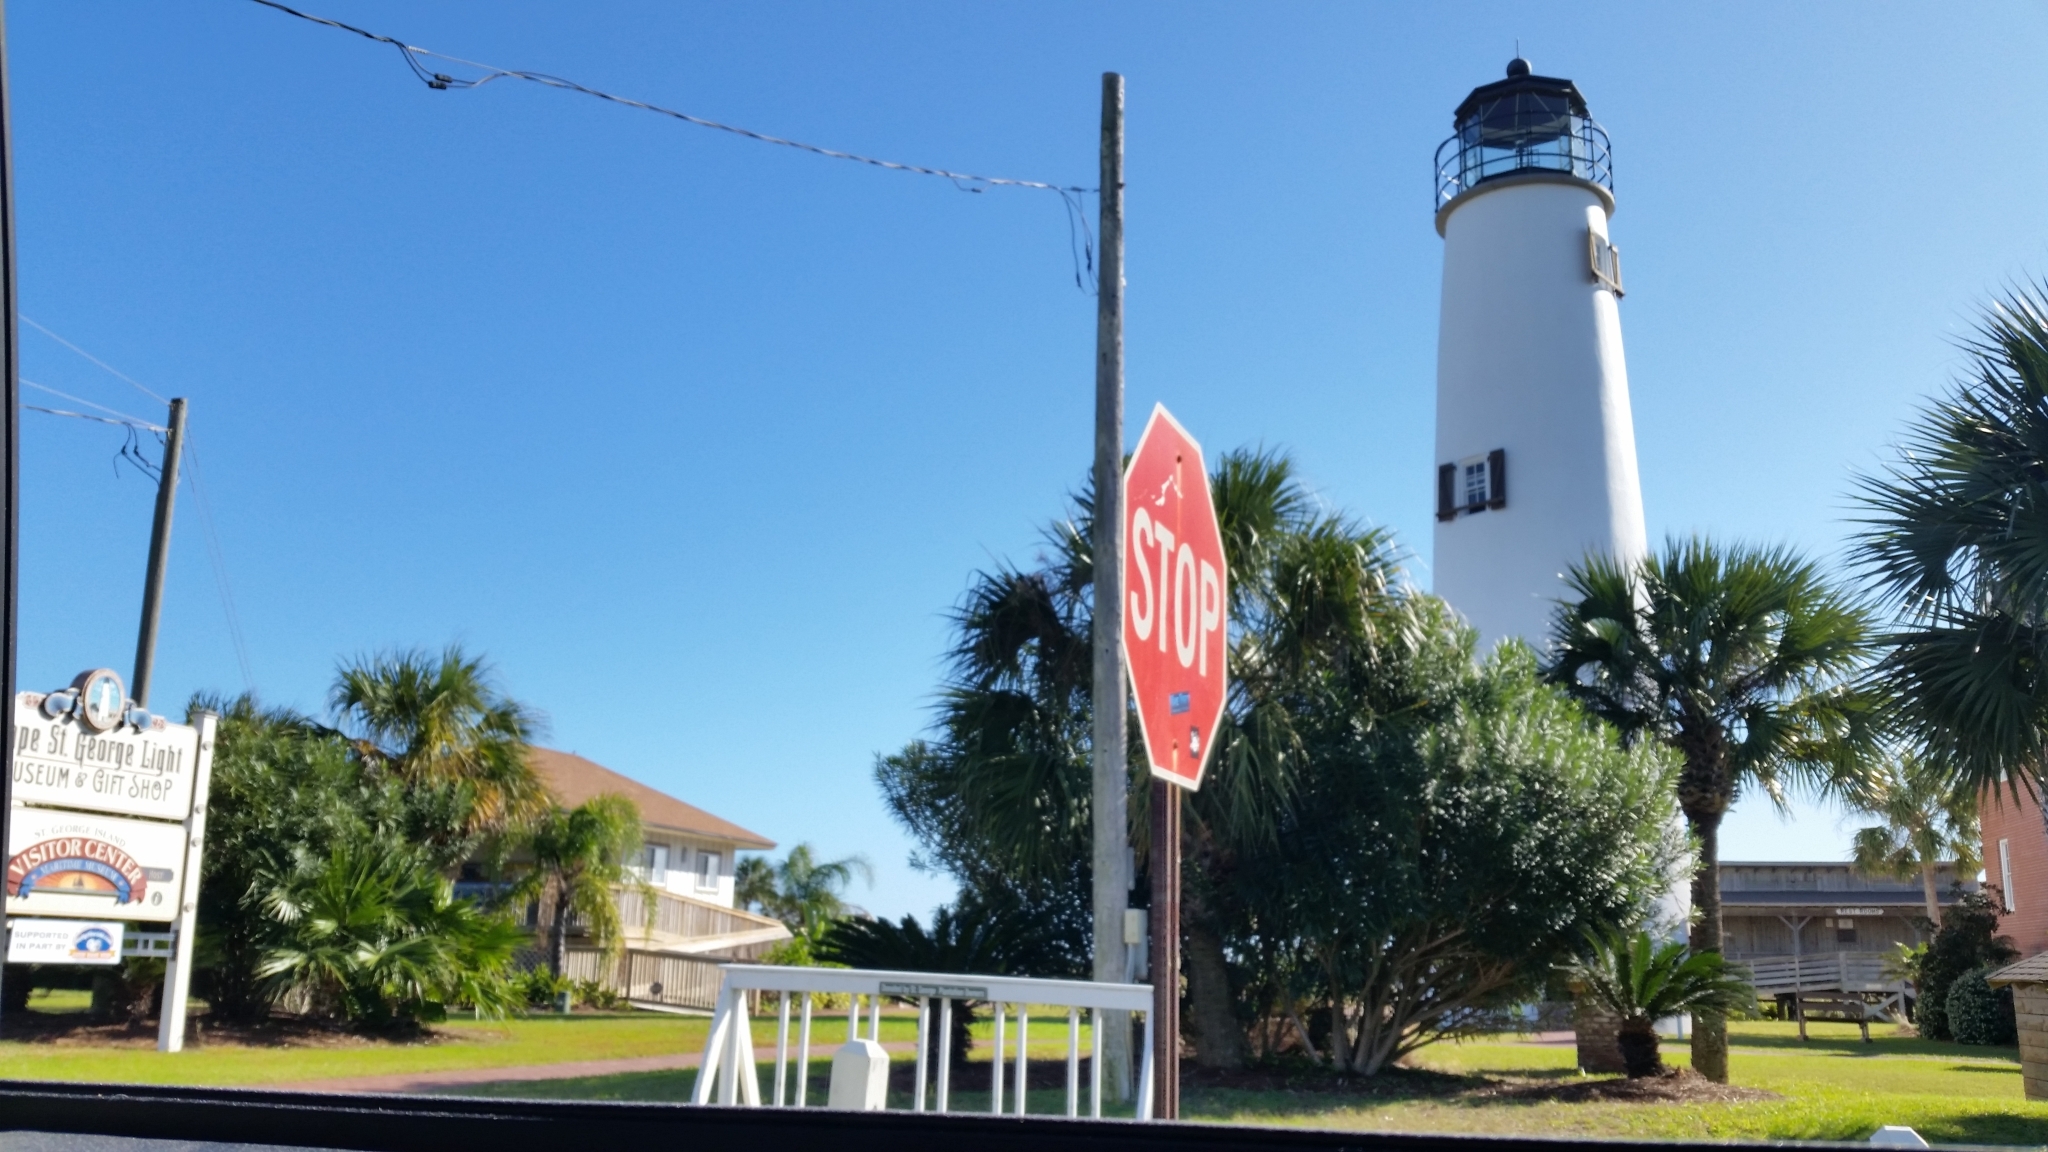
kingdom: Plantae
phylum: Tracheophyta
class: Liliopsida
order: Arecales
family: Arecaceae
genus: Sabal
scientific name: Sabal palmetto
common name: Blue palmetto
